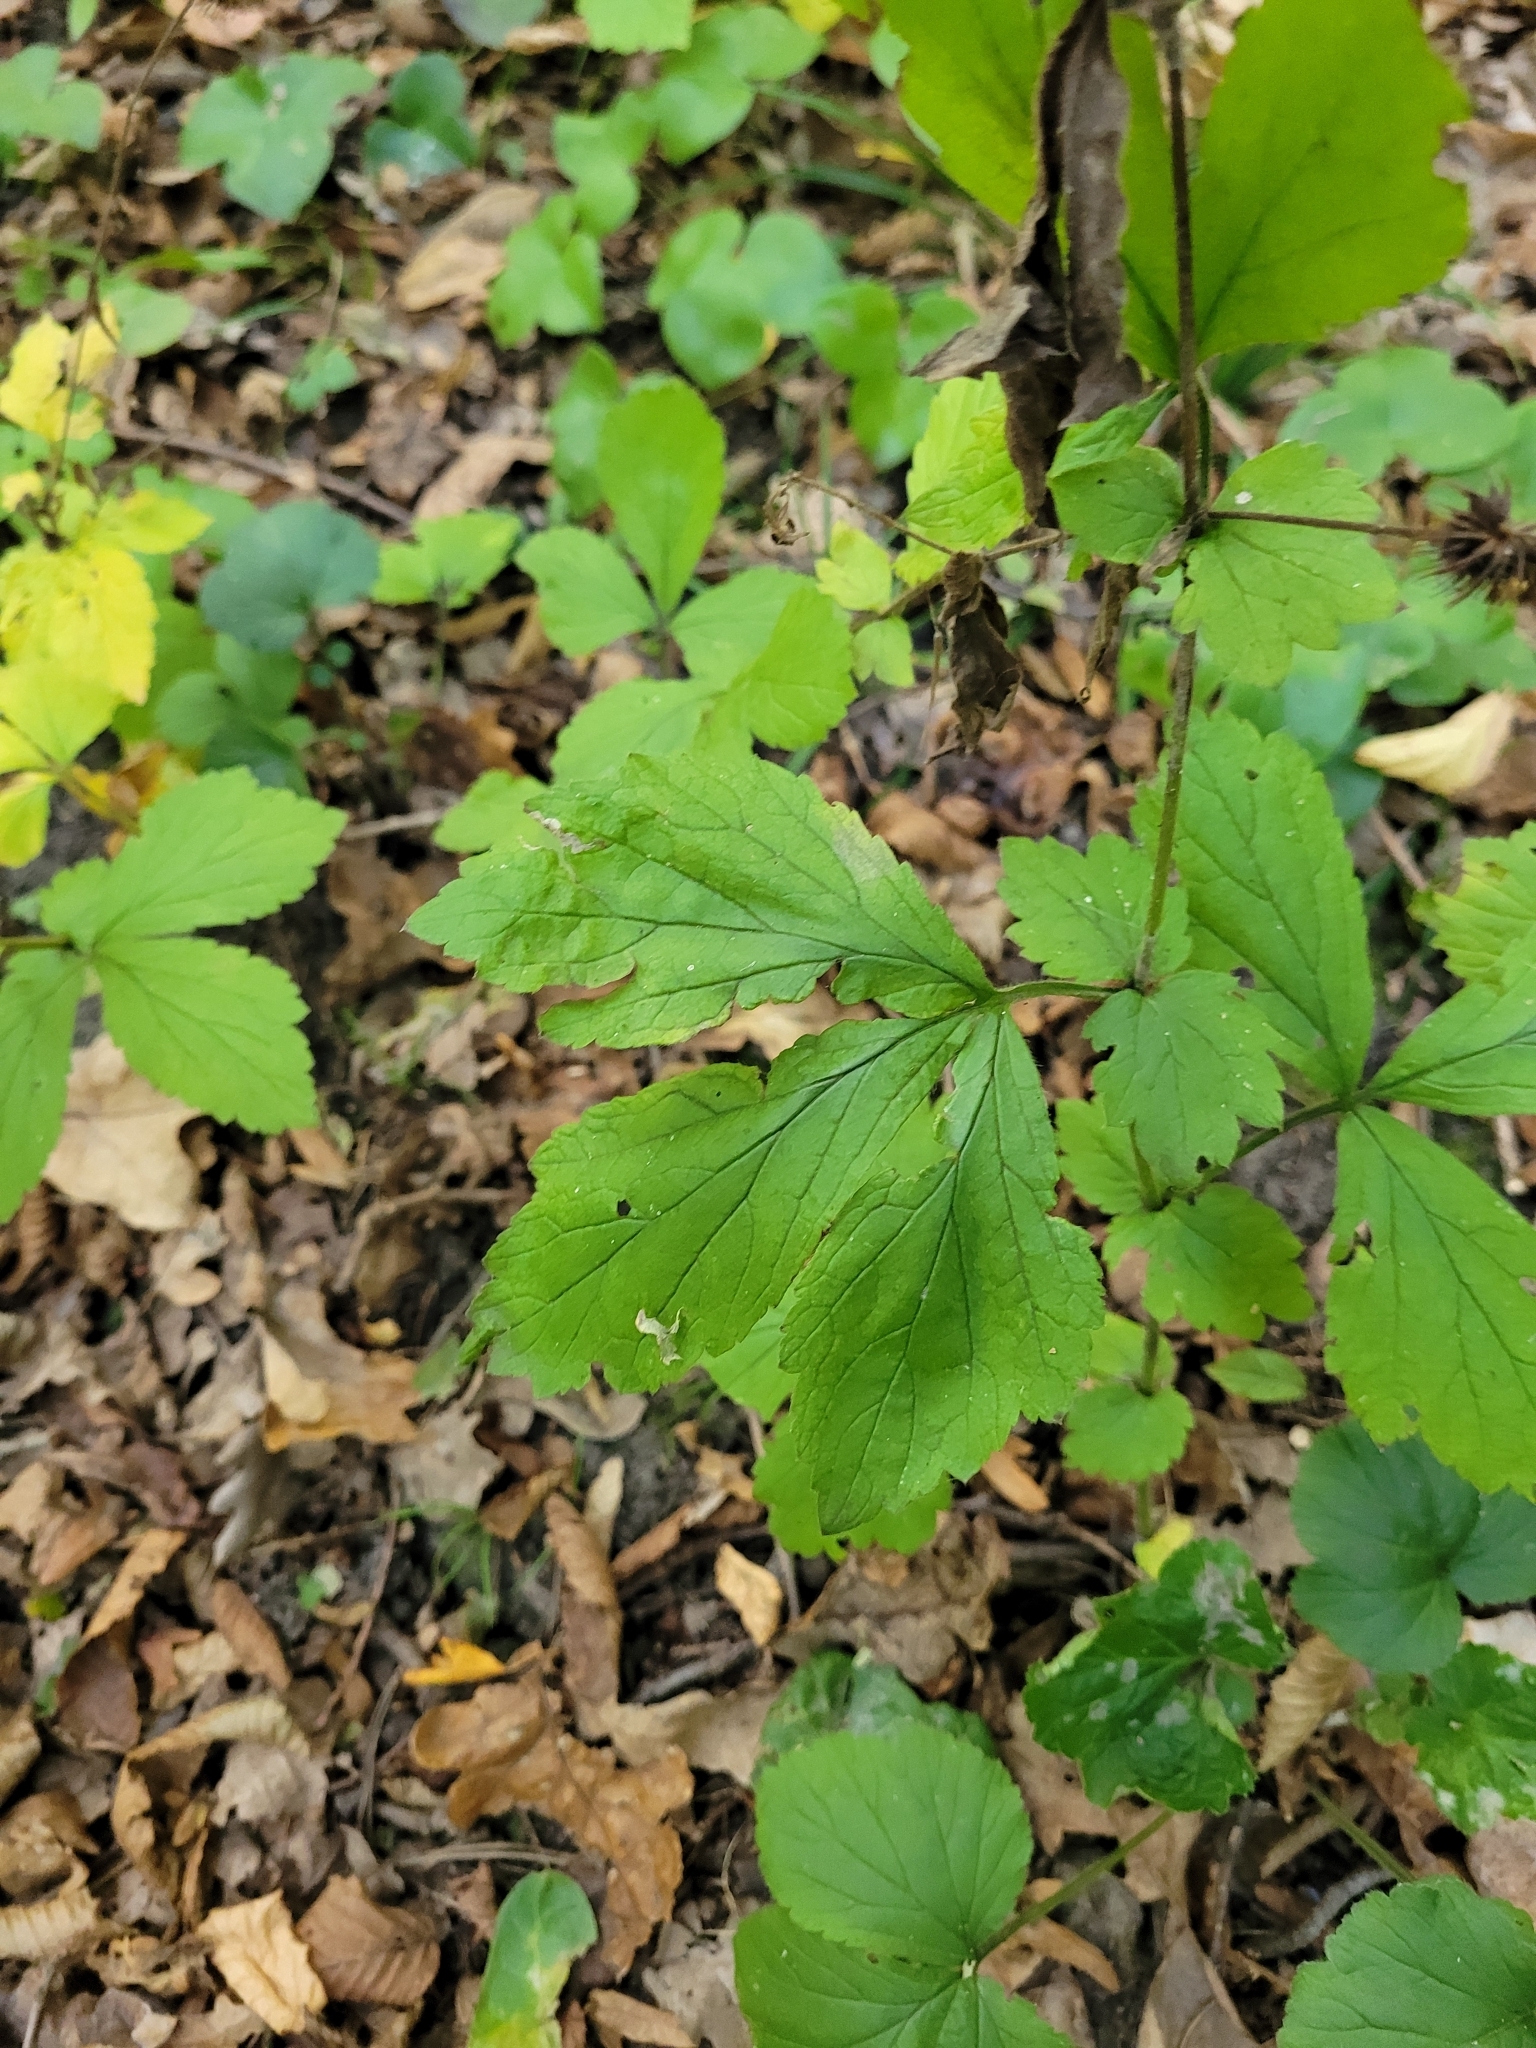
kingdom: Plantae
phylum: Tracheophyta
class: Magnoliopsida
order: Rosales
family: Rosaceae
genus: Geum
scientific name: Geum urbanum
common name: Wood avens
